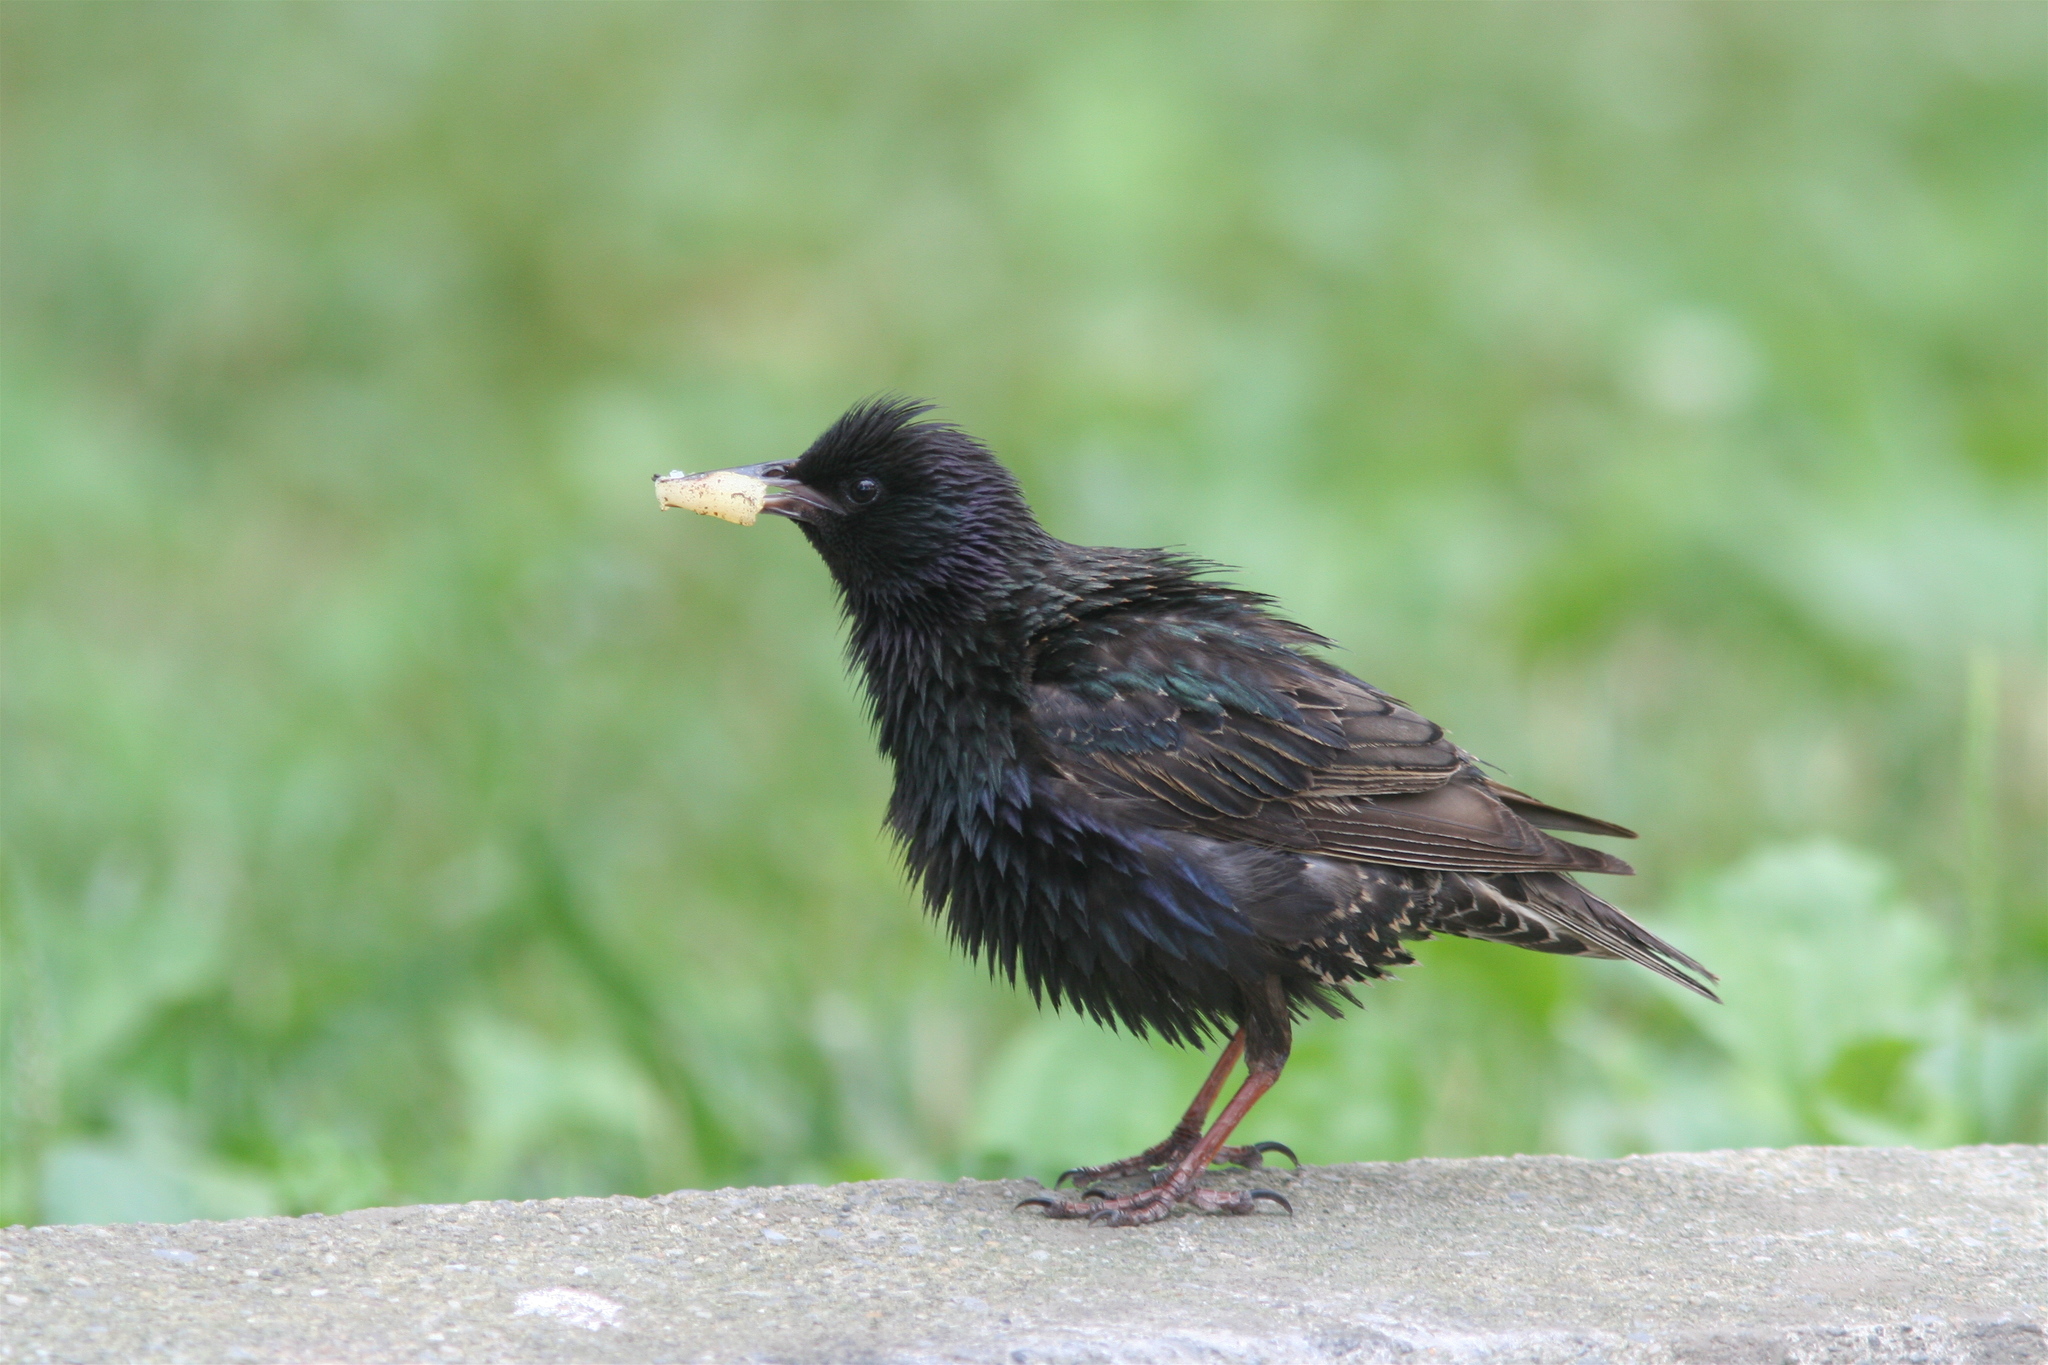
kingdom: Animalia
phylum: Chordata
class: Aves
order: Passeriformes
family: Sturnidae
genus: Sturnus
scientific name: Sturnus vulgaris
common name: Common starling
